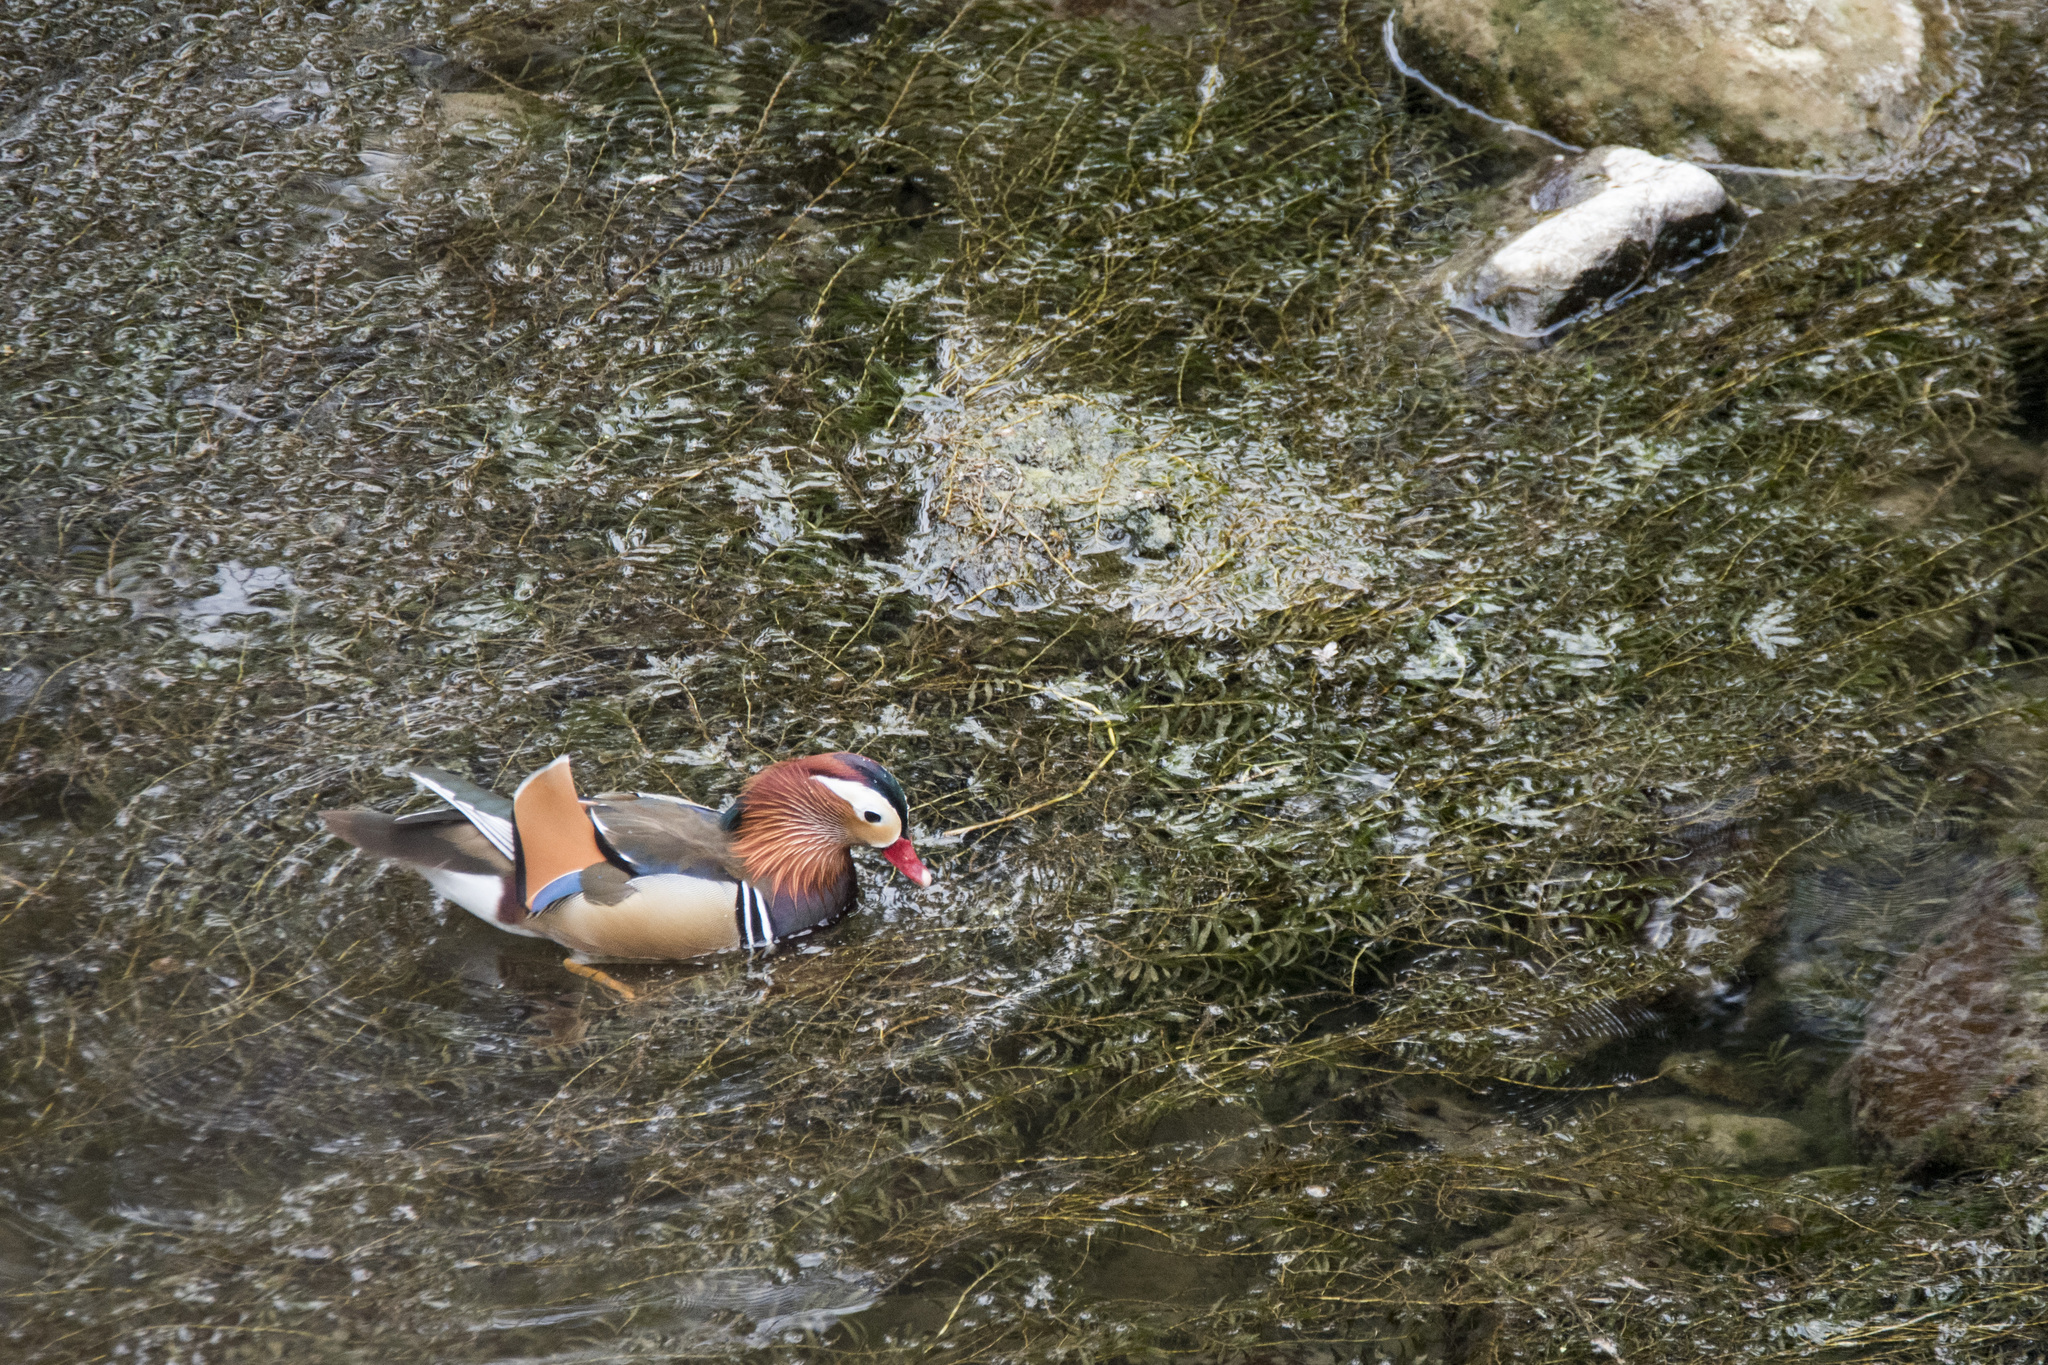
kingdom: Animalia
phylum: Chordata
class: Aves
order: Anseriformes
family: Anatidae
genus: Aix
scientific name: Aix galericulata
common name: Mandarin duck
